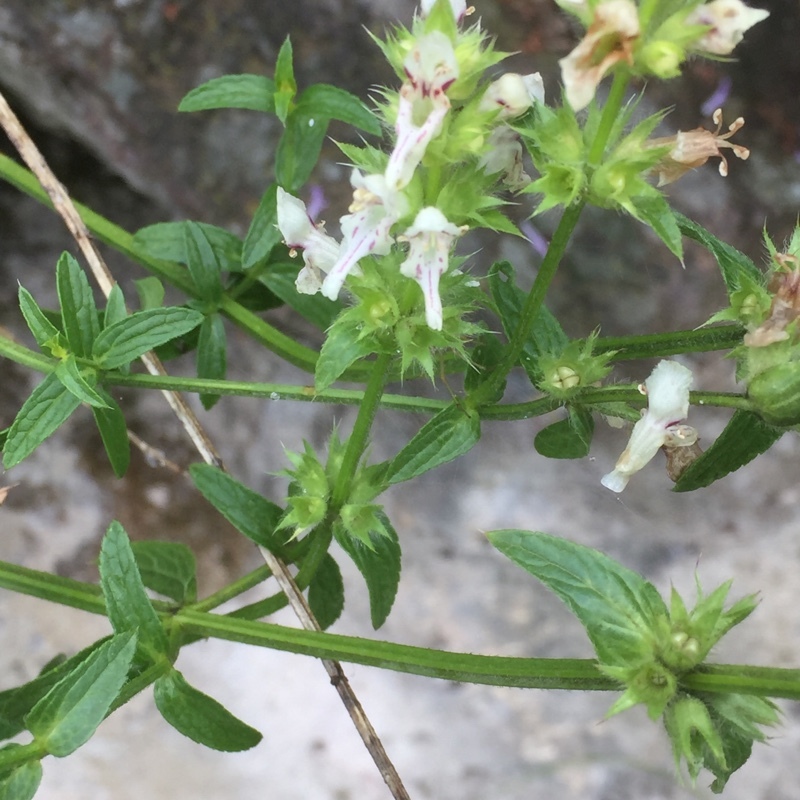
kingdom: Plantae
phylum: Tracheophyta
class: Magnoliopsida
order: Lamiales
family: Lamiaceae
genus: Stachys
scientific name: Stachys recta
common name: Perennial yellow-woundwort
